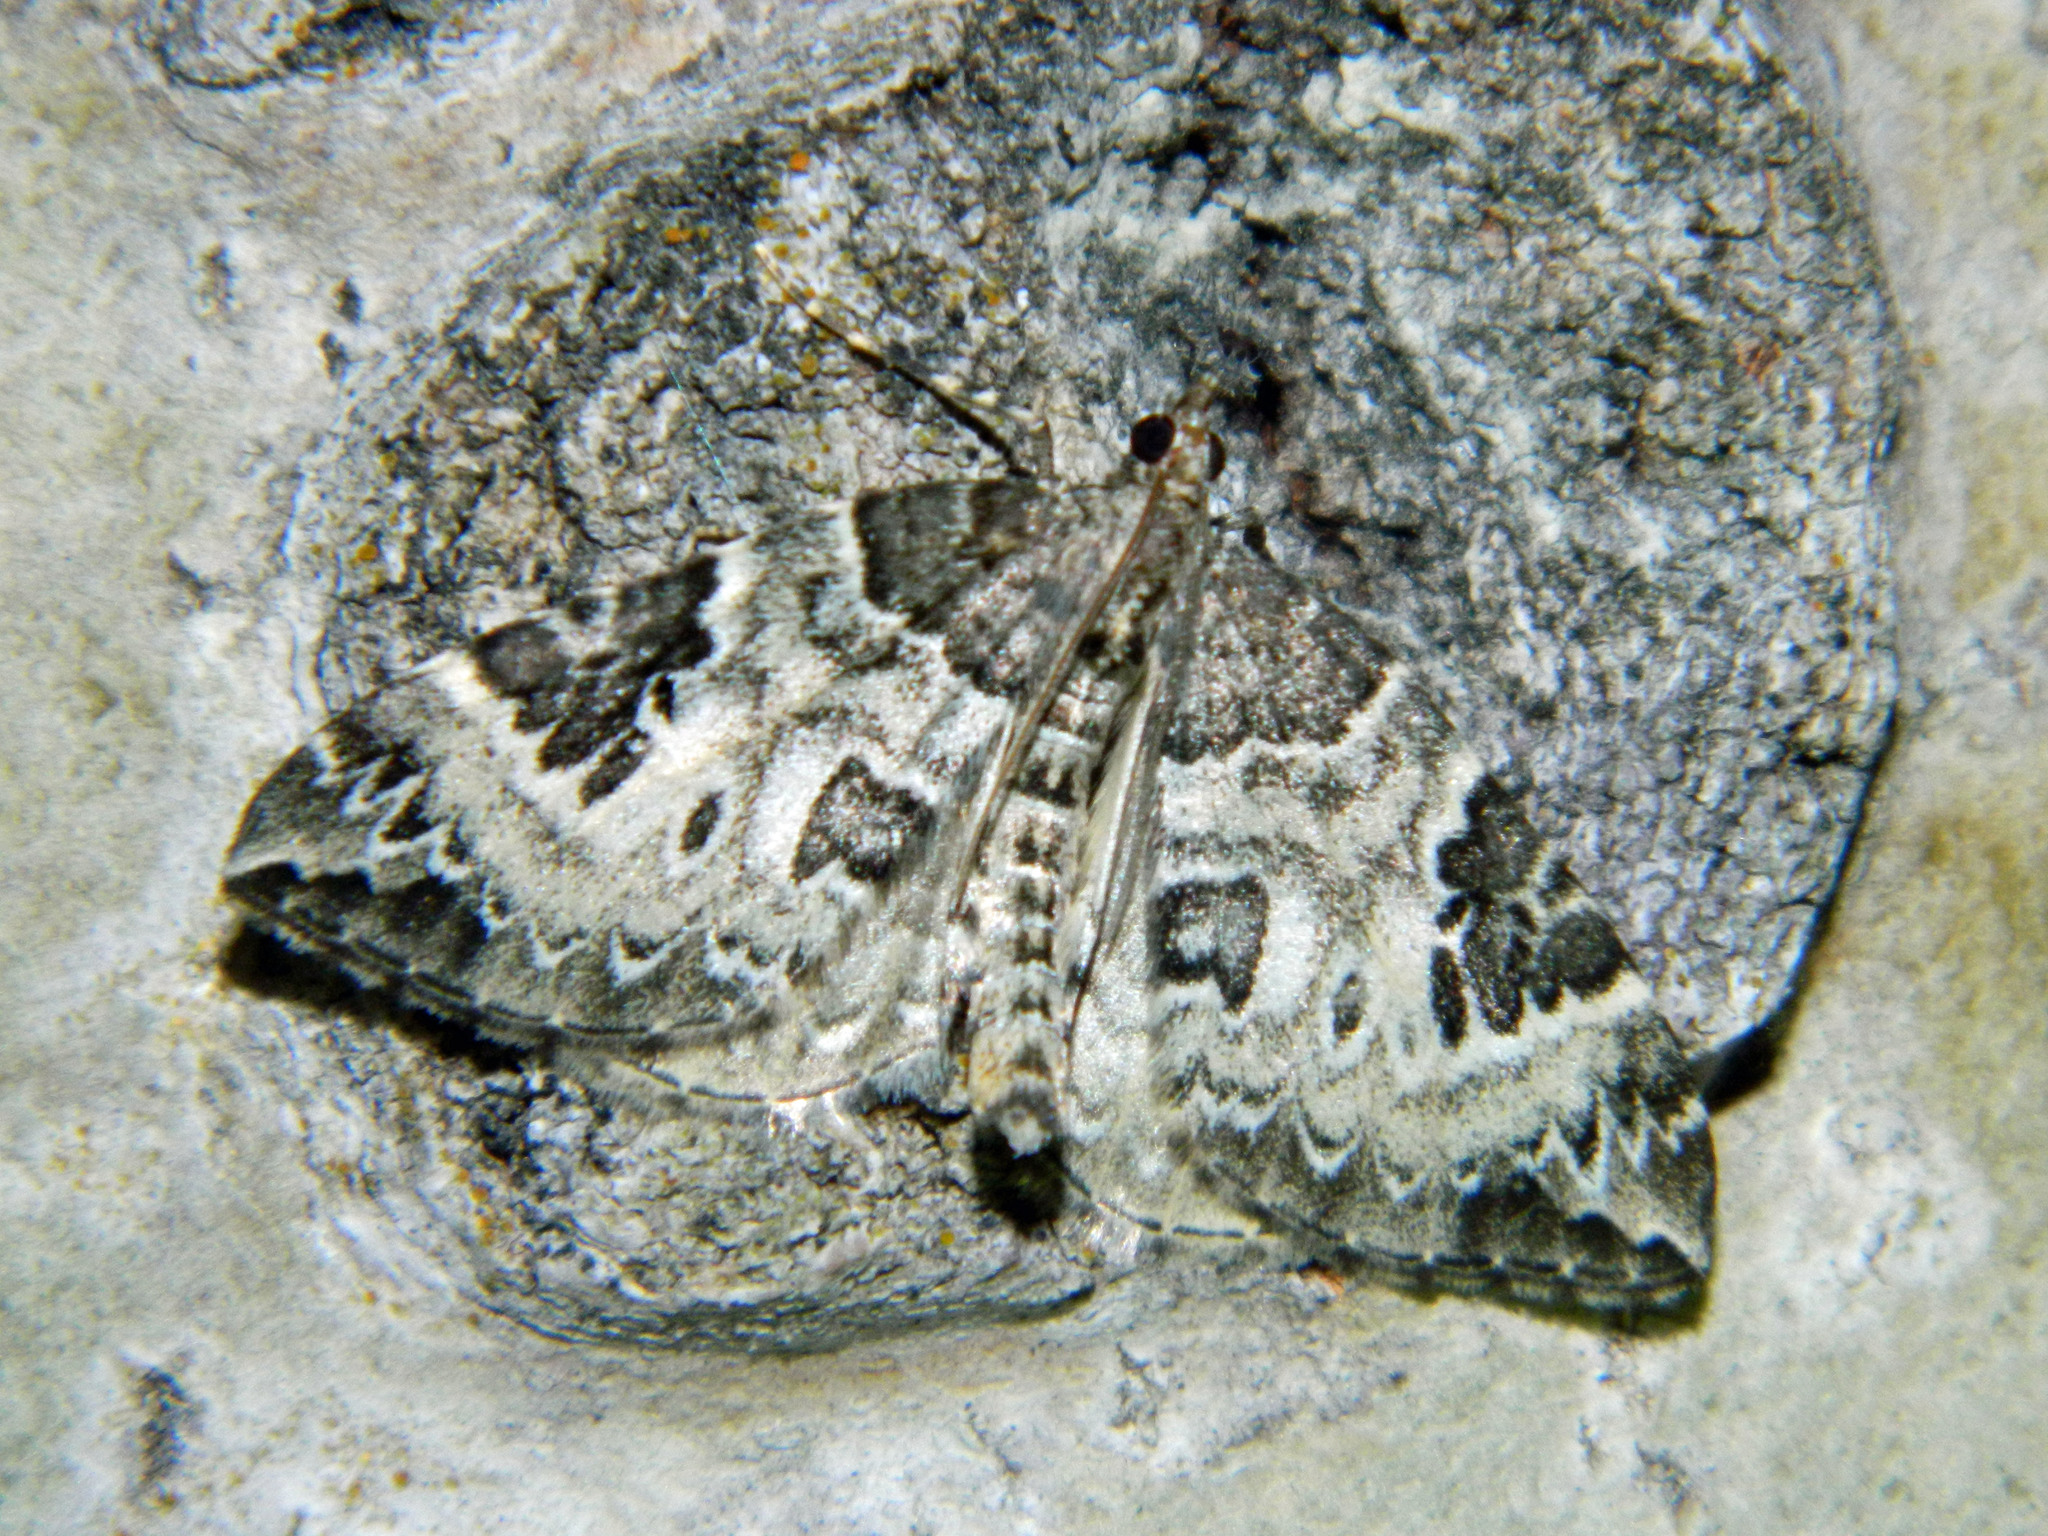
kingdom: Animalia
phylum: Arthropoda
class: Insecta
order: Lepidoptera
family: Geometridae
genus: Eulithis
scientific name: Eulithis explanata
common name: White eulithis
